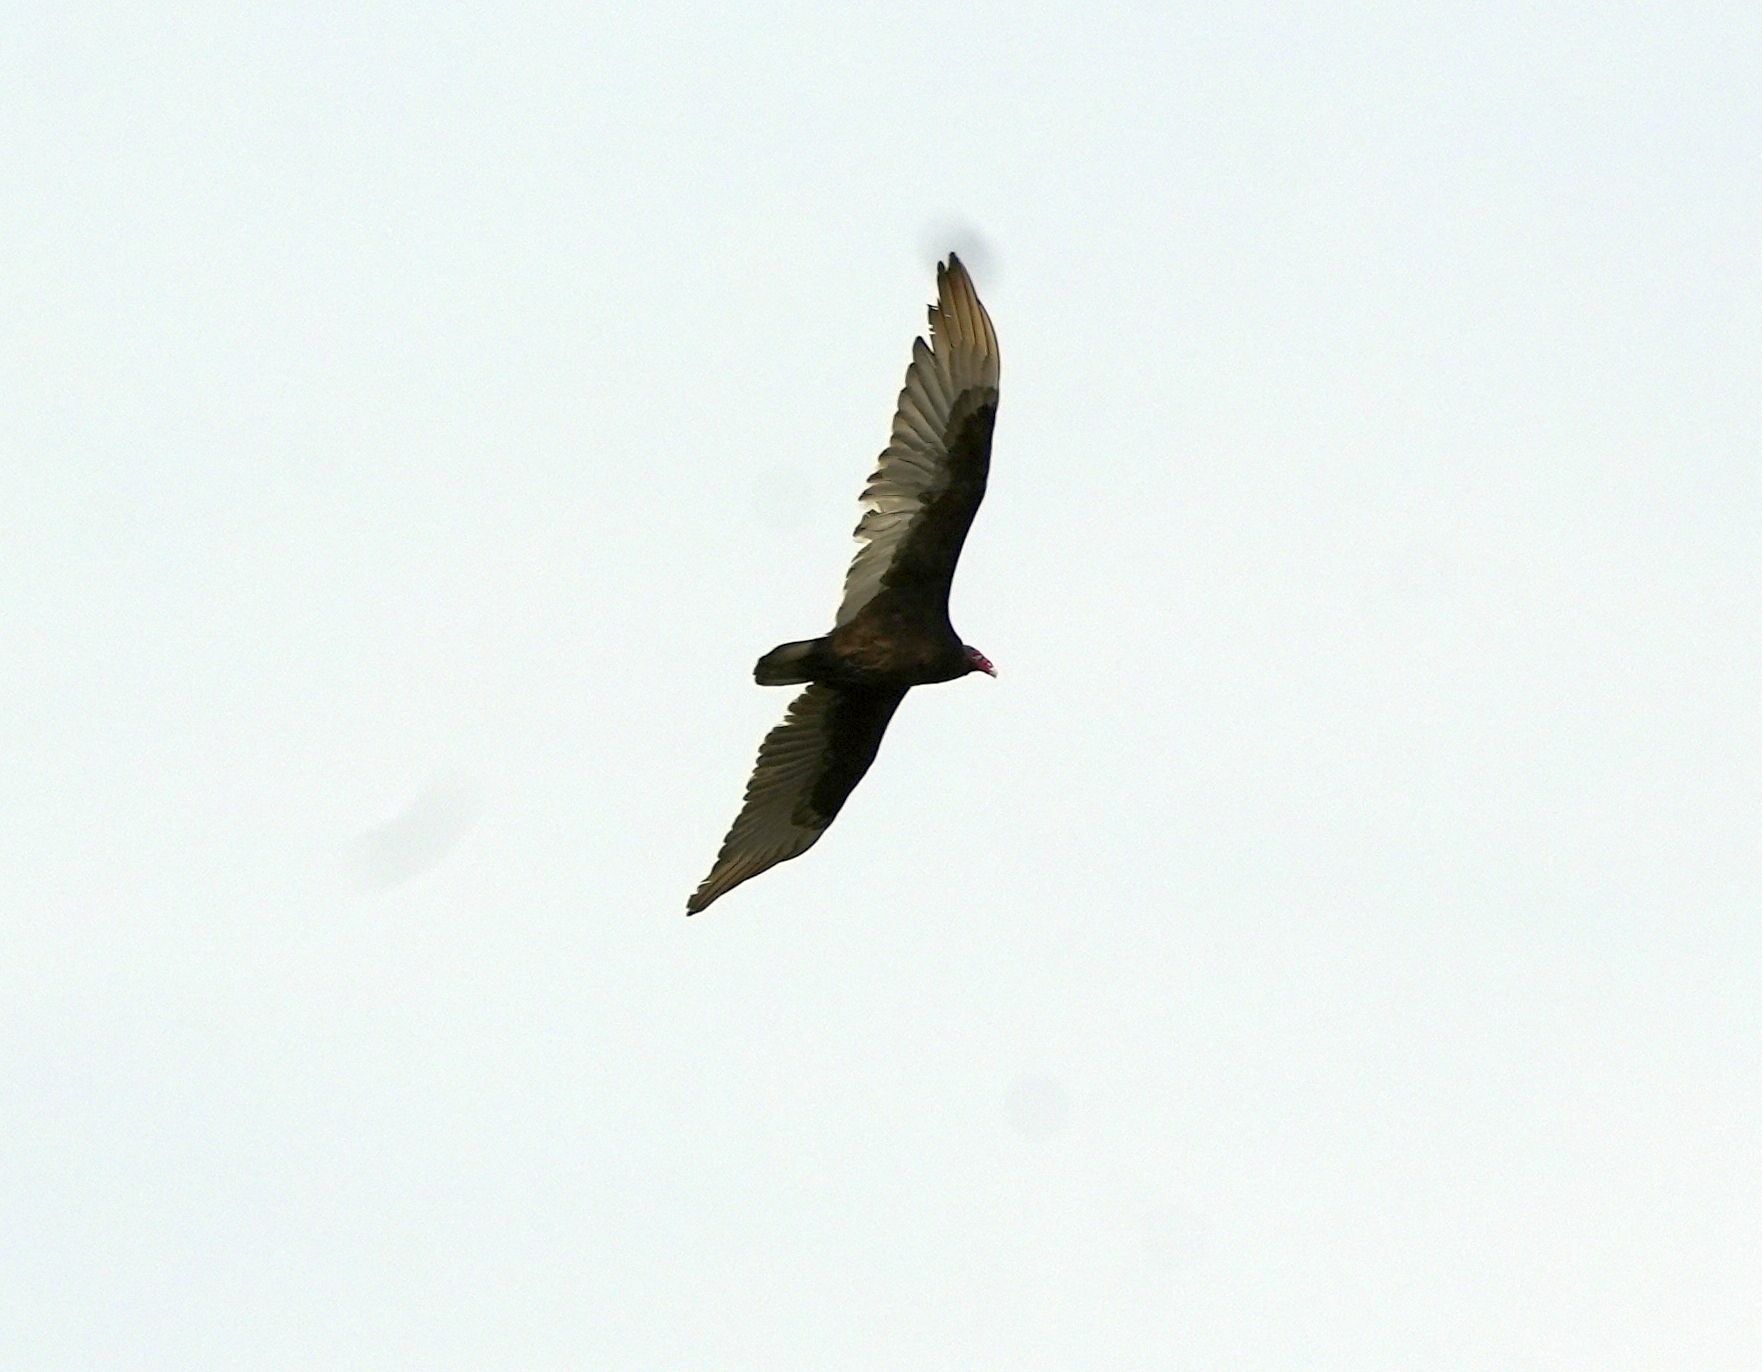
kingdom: Animalia
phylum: Chordata
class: Aves
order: Accipitriformes
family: Cathartidae
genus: Cathartes
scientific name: Cathartes aura
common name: Turkey vulture
